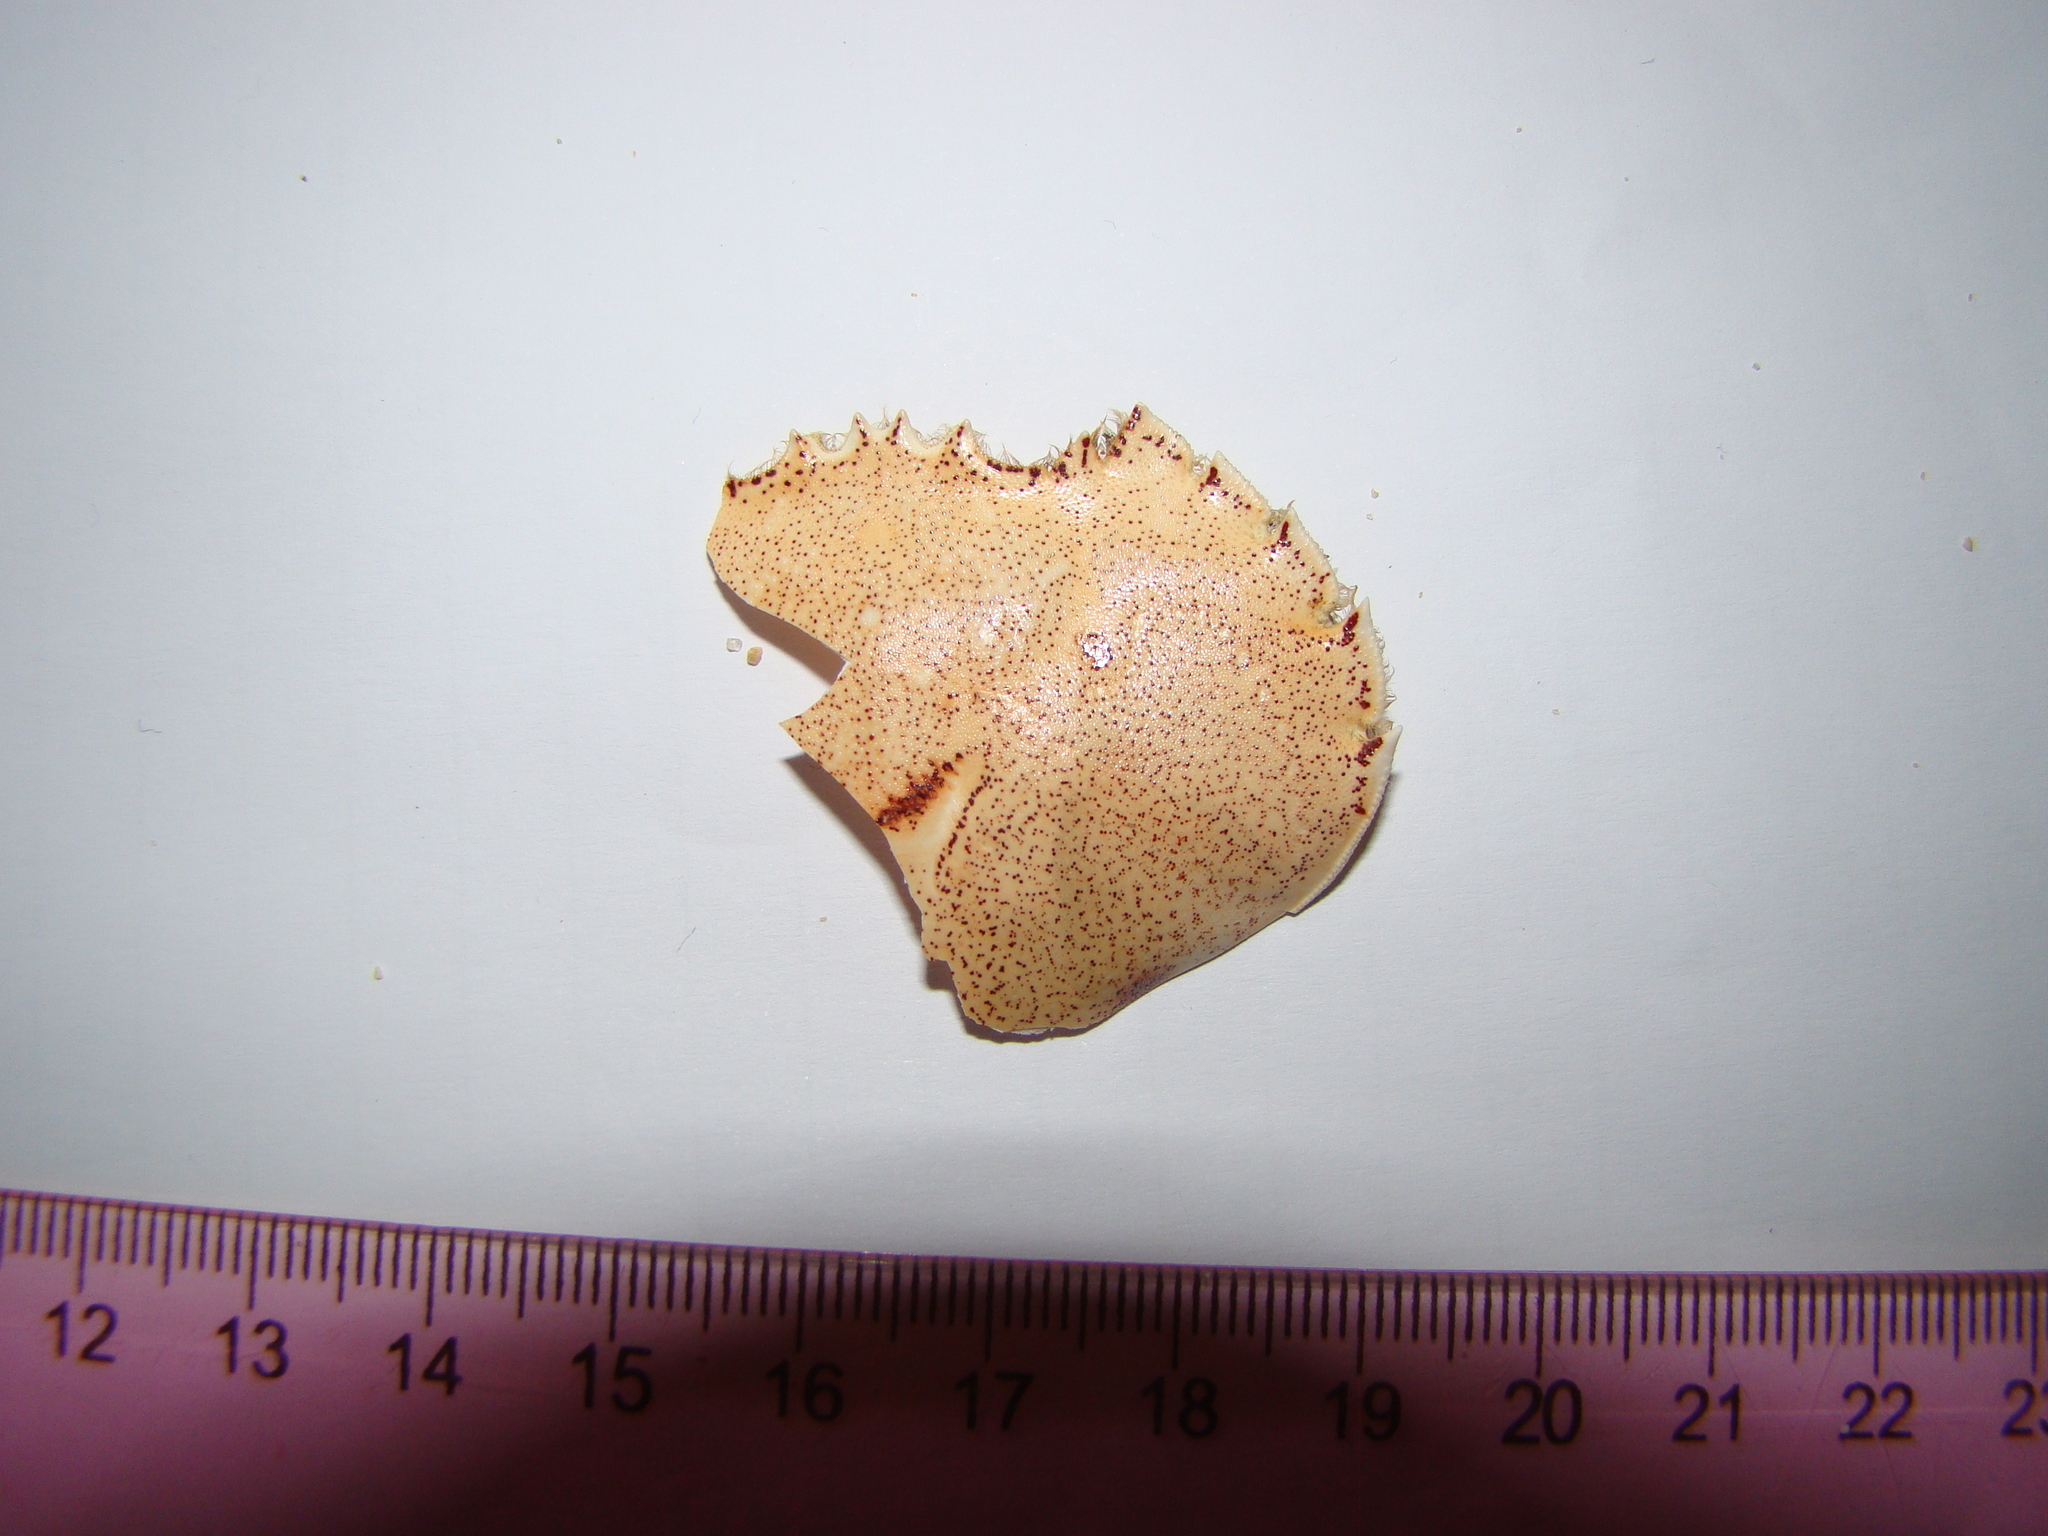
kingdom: Animalia
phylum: Arthropoda
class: Malacostraca
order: Decapoda
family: Ovalipidae
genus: Ovalipes
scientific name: Ovalipes catharus
